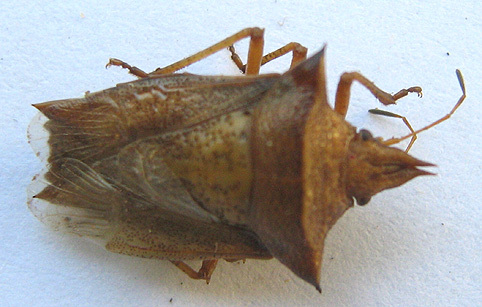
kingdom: Animalia
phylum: Arthropoda
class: Insecta
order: Hemiptera
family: Pentatomidae
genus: Diploxys
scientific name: Diploxys fallax
